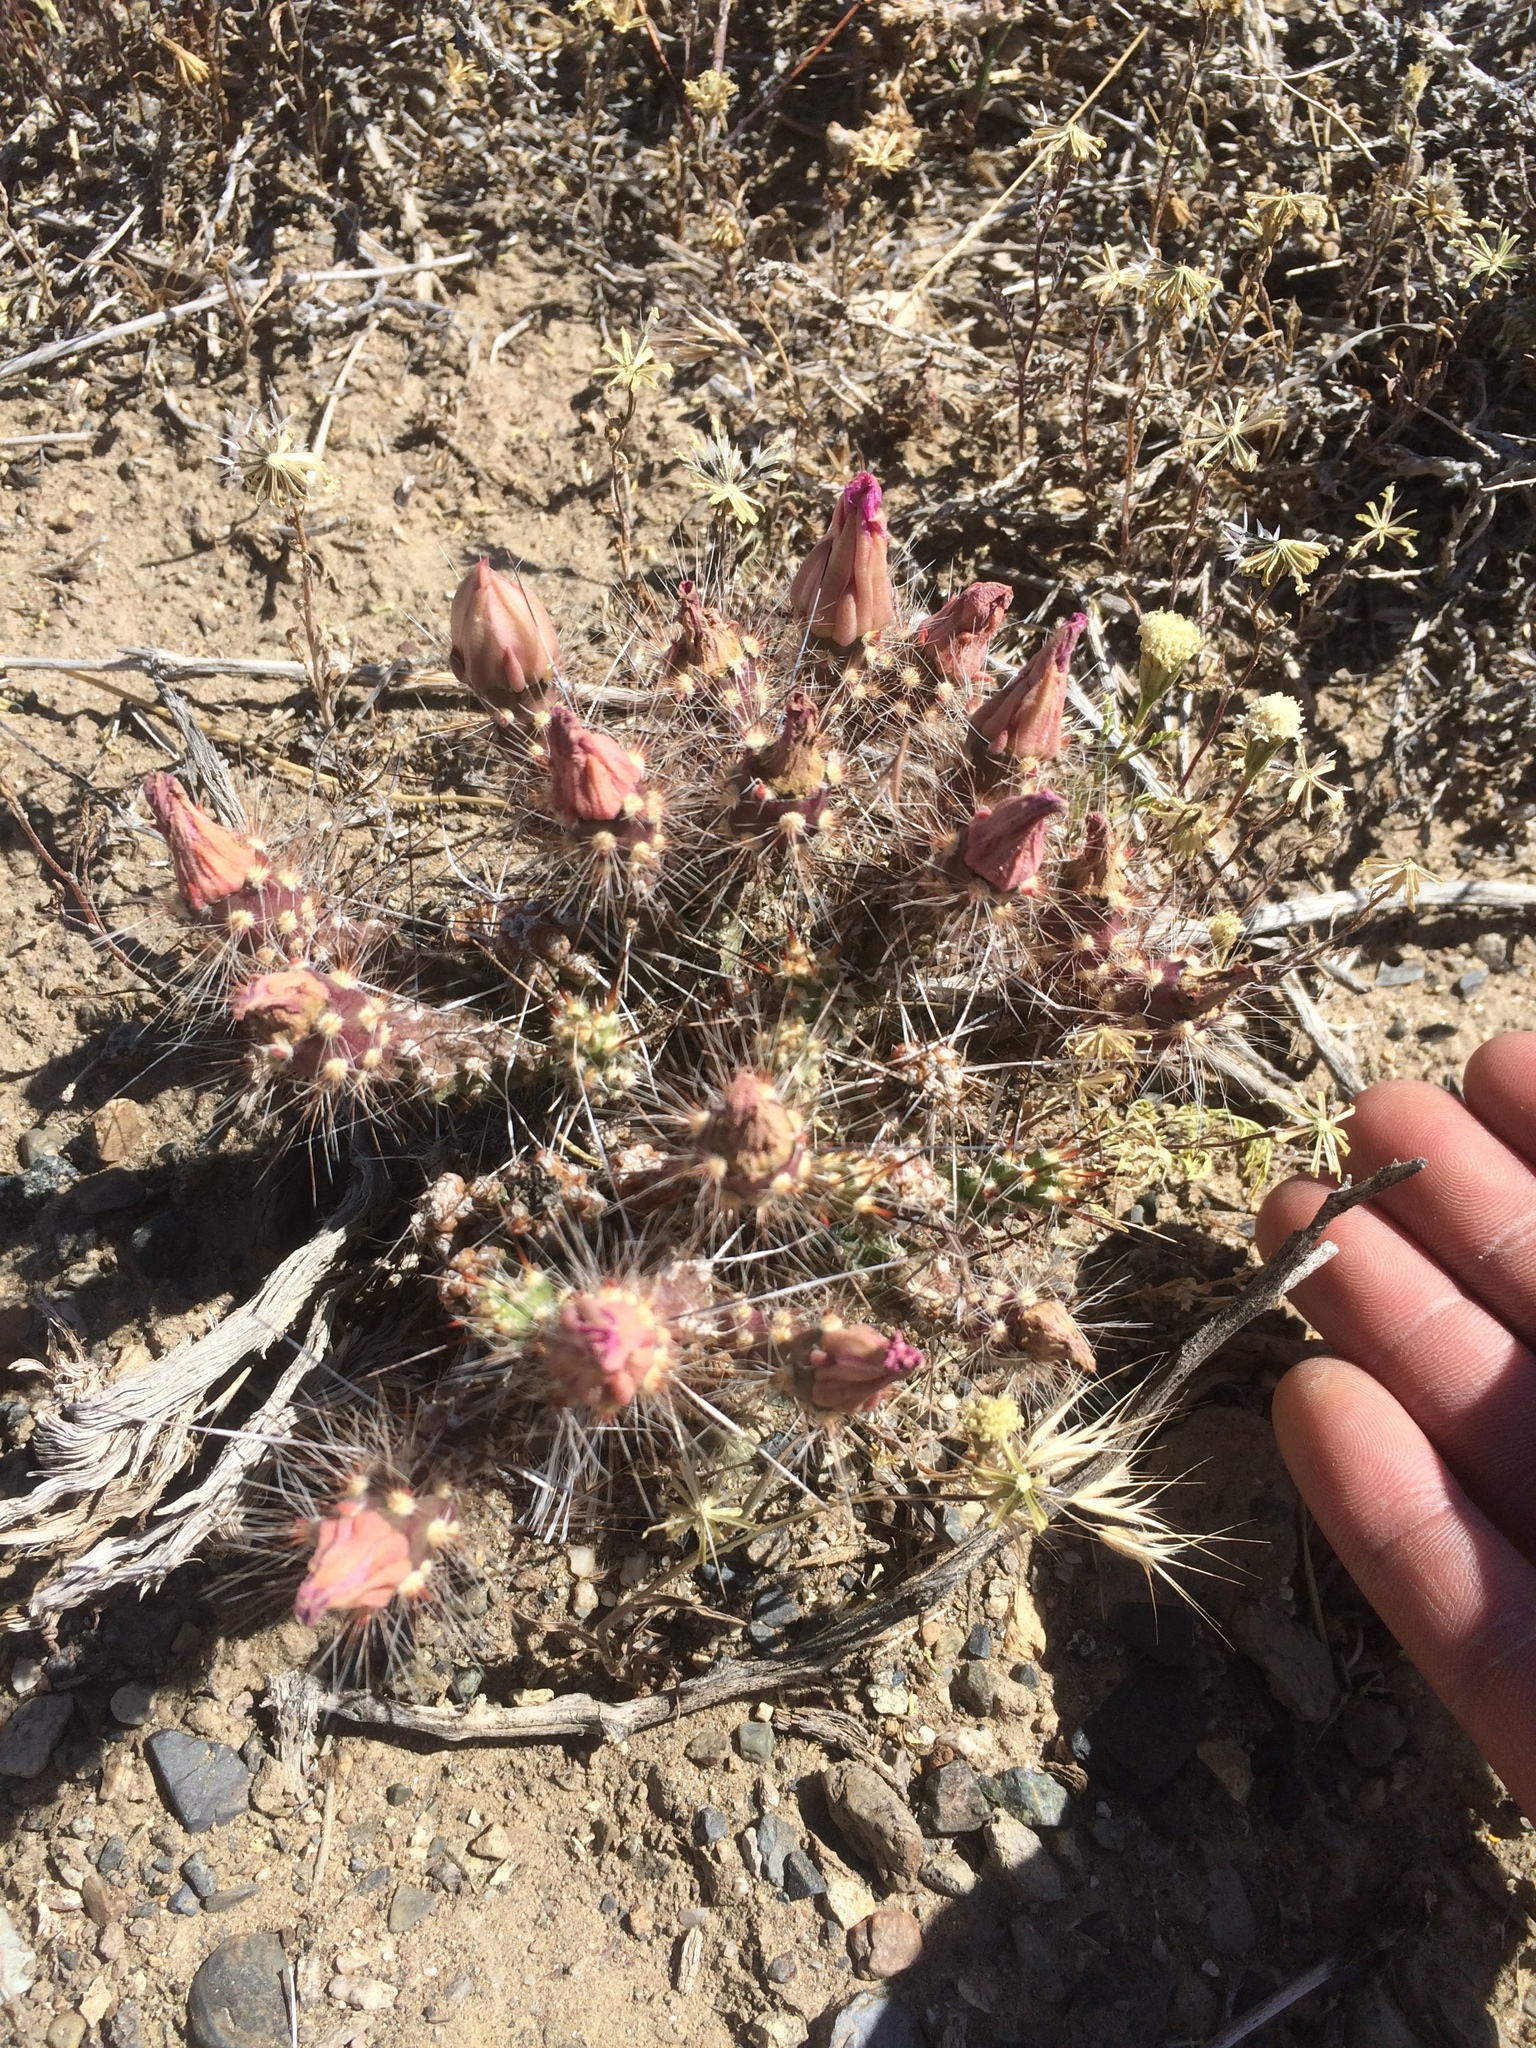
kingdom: Plantae
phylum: Tracheophyta
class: Magnoliopsida
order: Caryophyllales
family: Cactaceae
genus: Micropuntia
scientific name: Micropuntia pulchella
